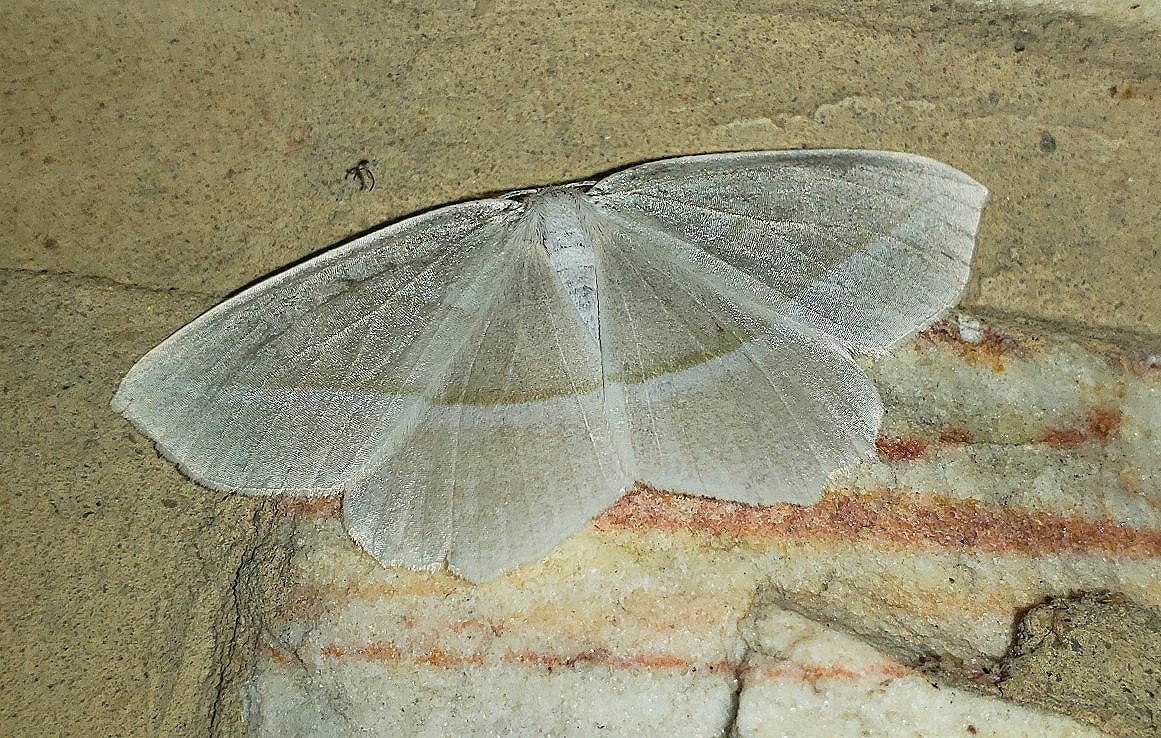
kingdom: Animalia
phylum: Arthropoda
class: Insecta
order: Lepidoptera
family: Geometridae
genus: Campaea
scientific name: Campaea perlata
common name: Fringed looper
